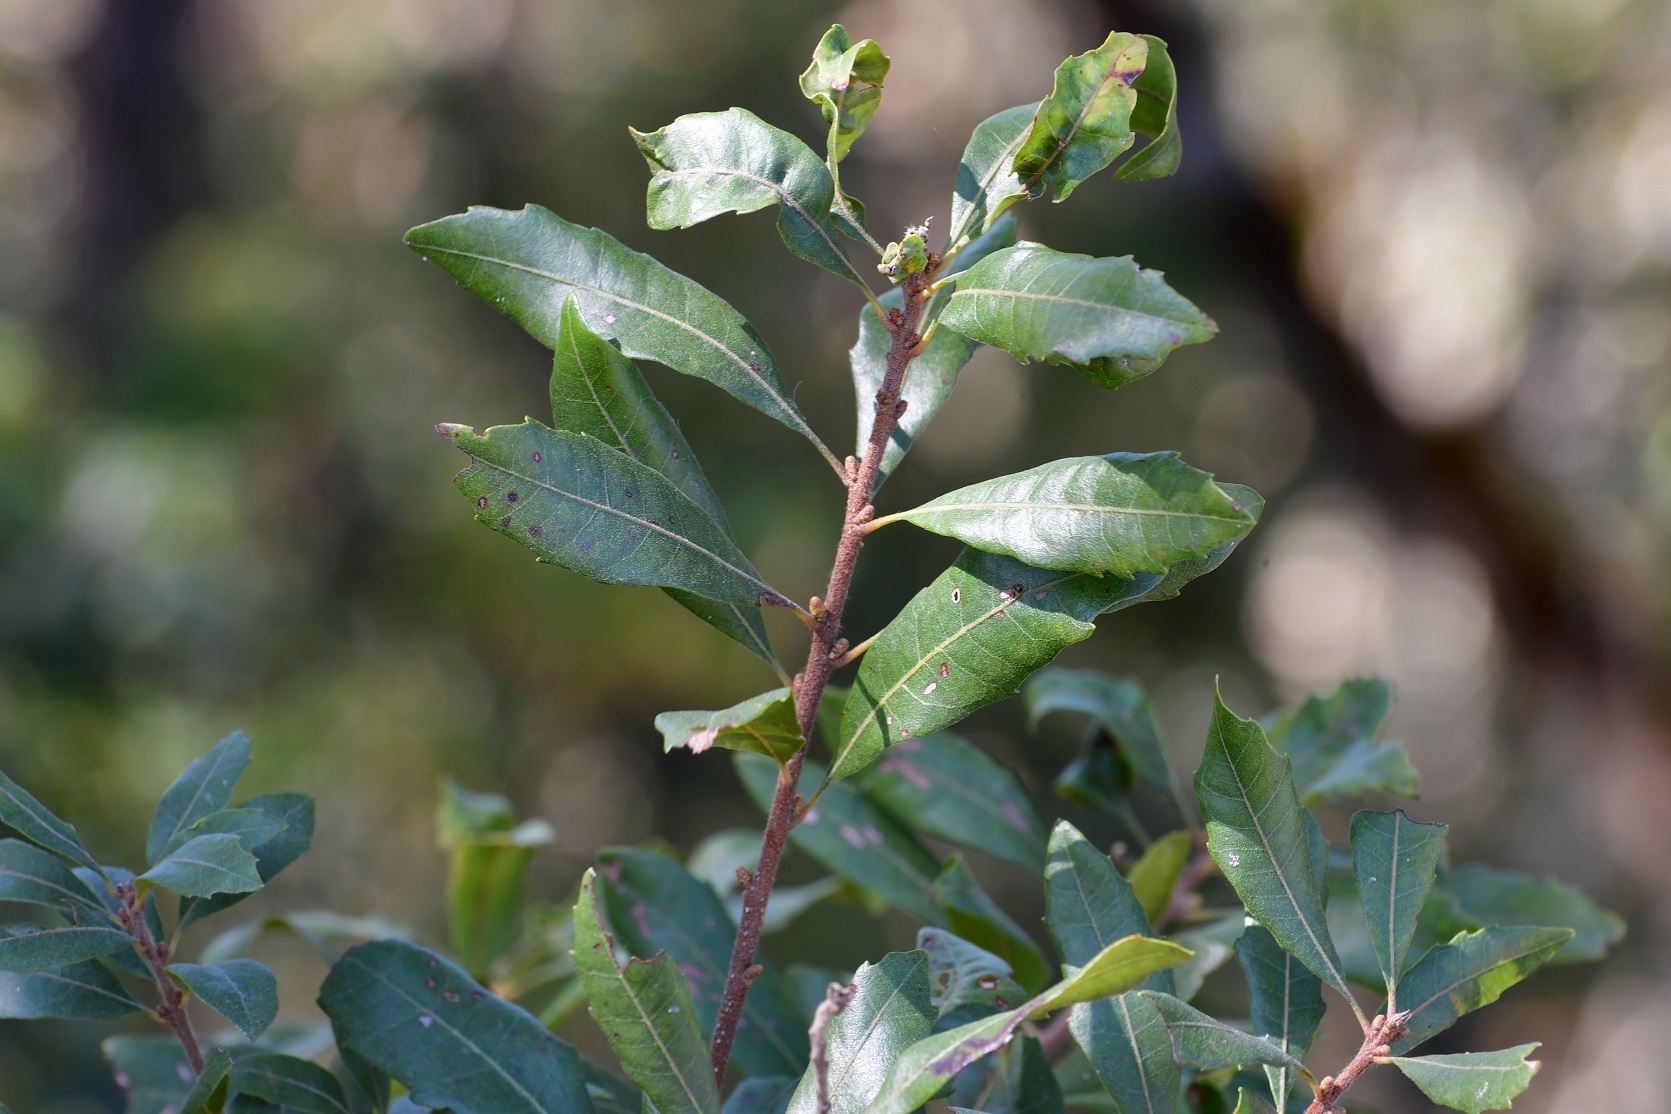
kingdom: Plantae
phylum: Tracheophyta
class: Magnoliopsida
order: Fagales
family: Myricaceae
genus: Morella
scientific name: Morella cerifera
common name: Wax myrtle
